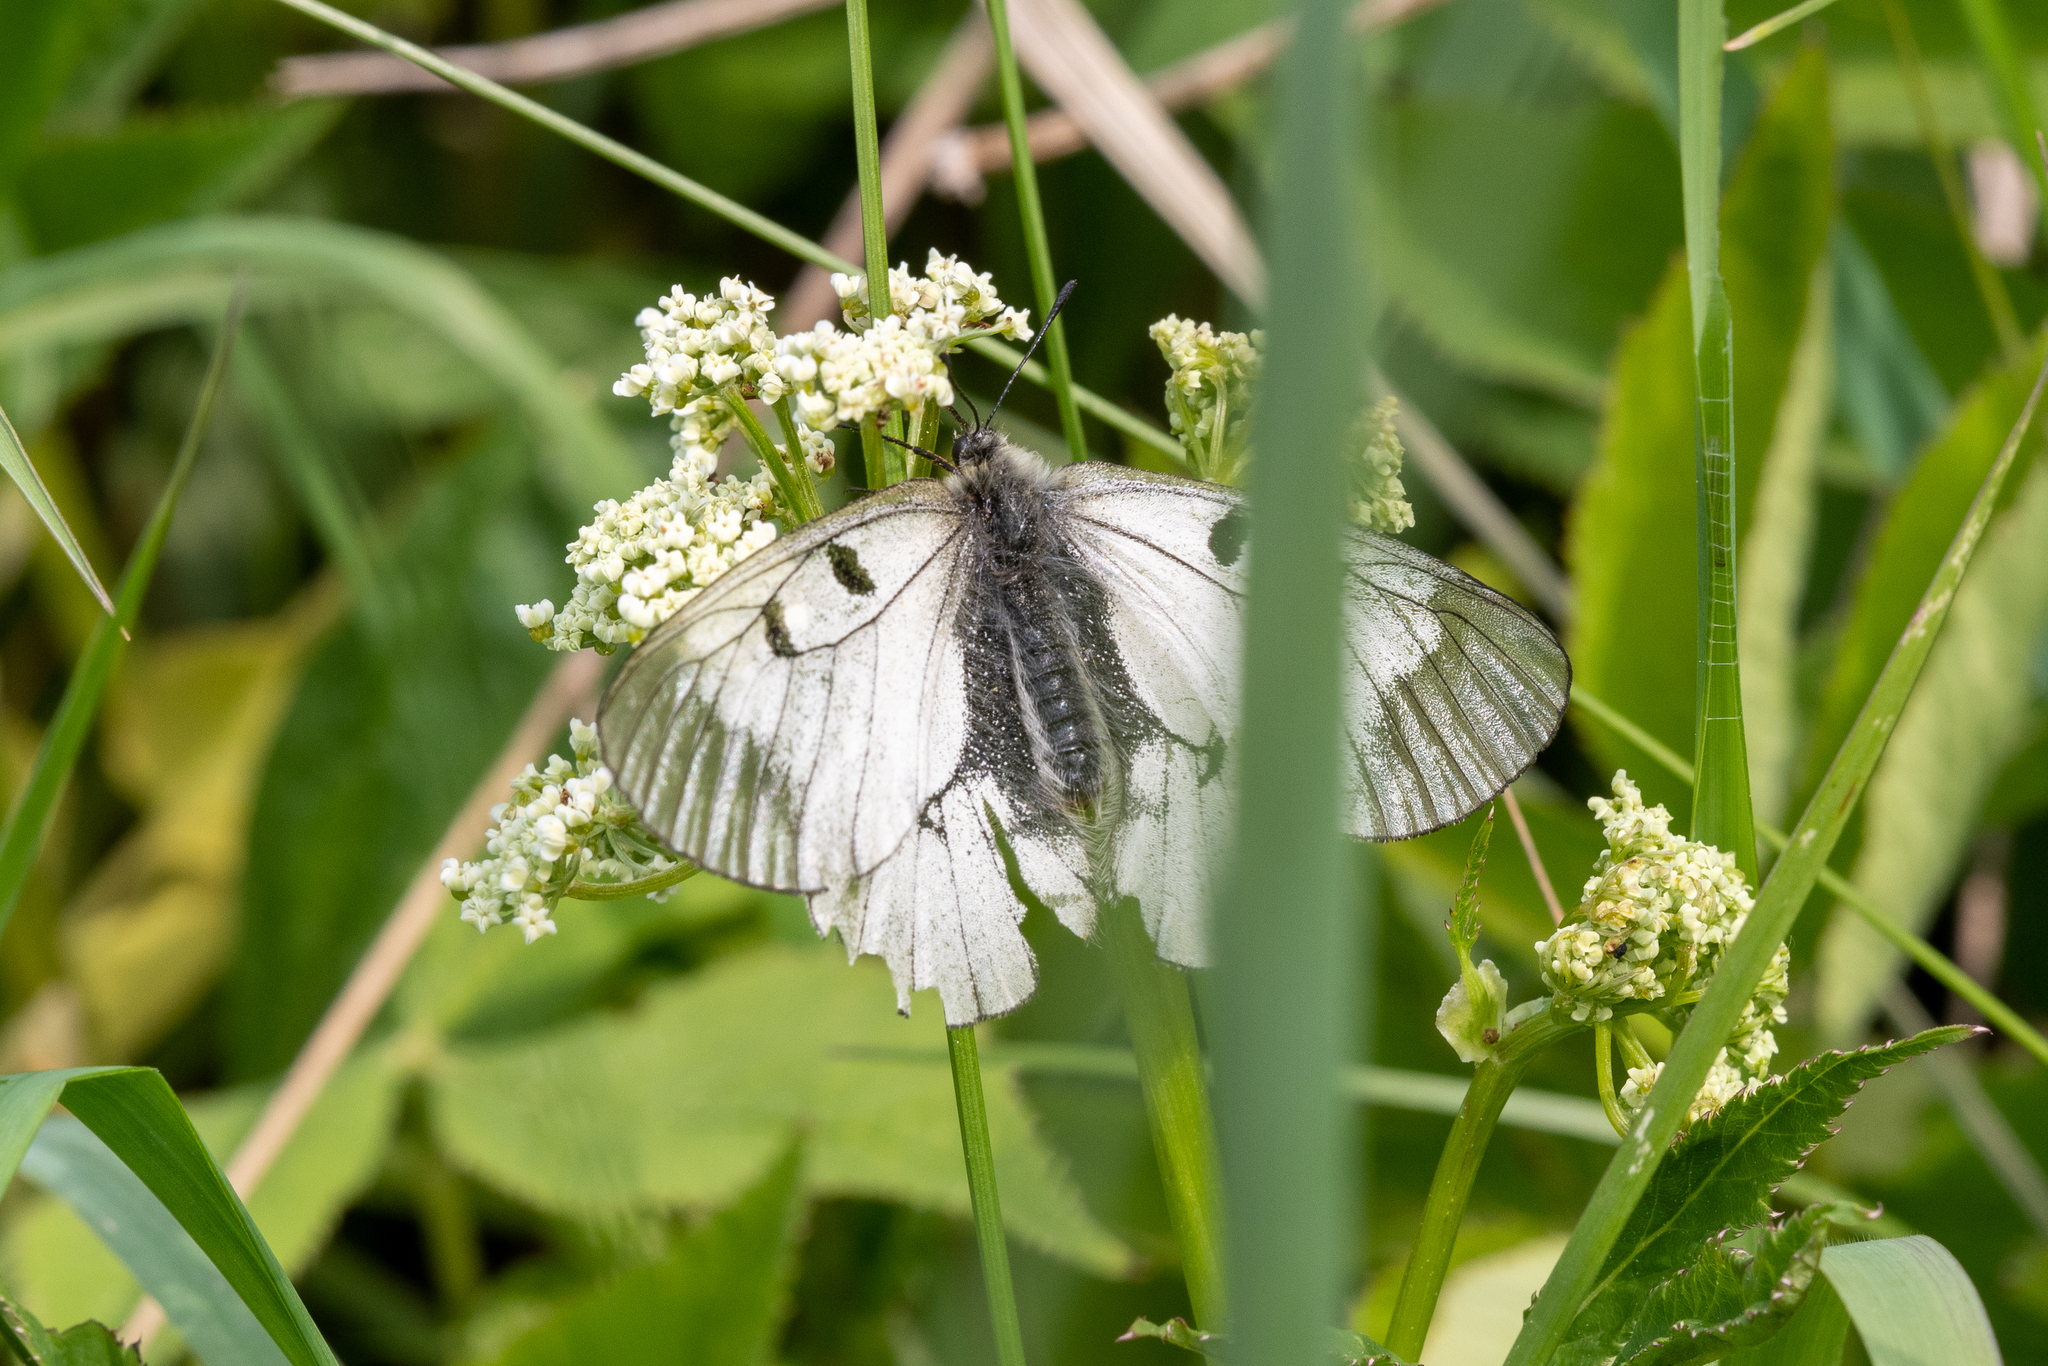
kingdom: Animalia
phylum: Arthropoda
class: Insecta
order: Lepidoptera
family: Papilionidae
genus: Parnassius
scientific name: Parnassius mnemosyne
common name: Clouded apollo
